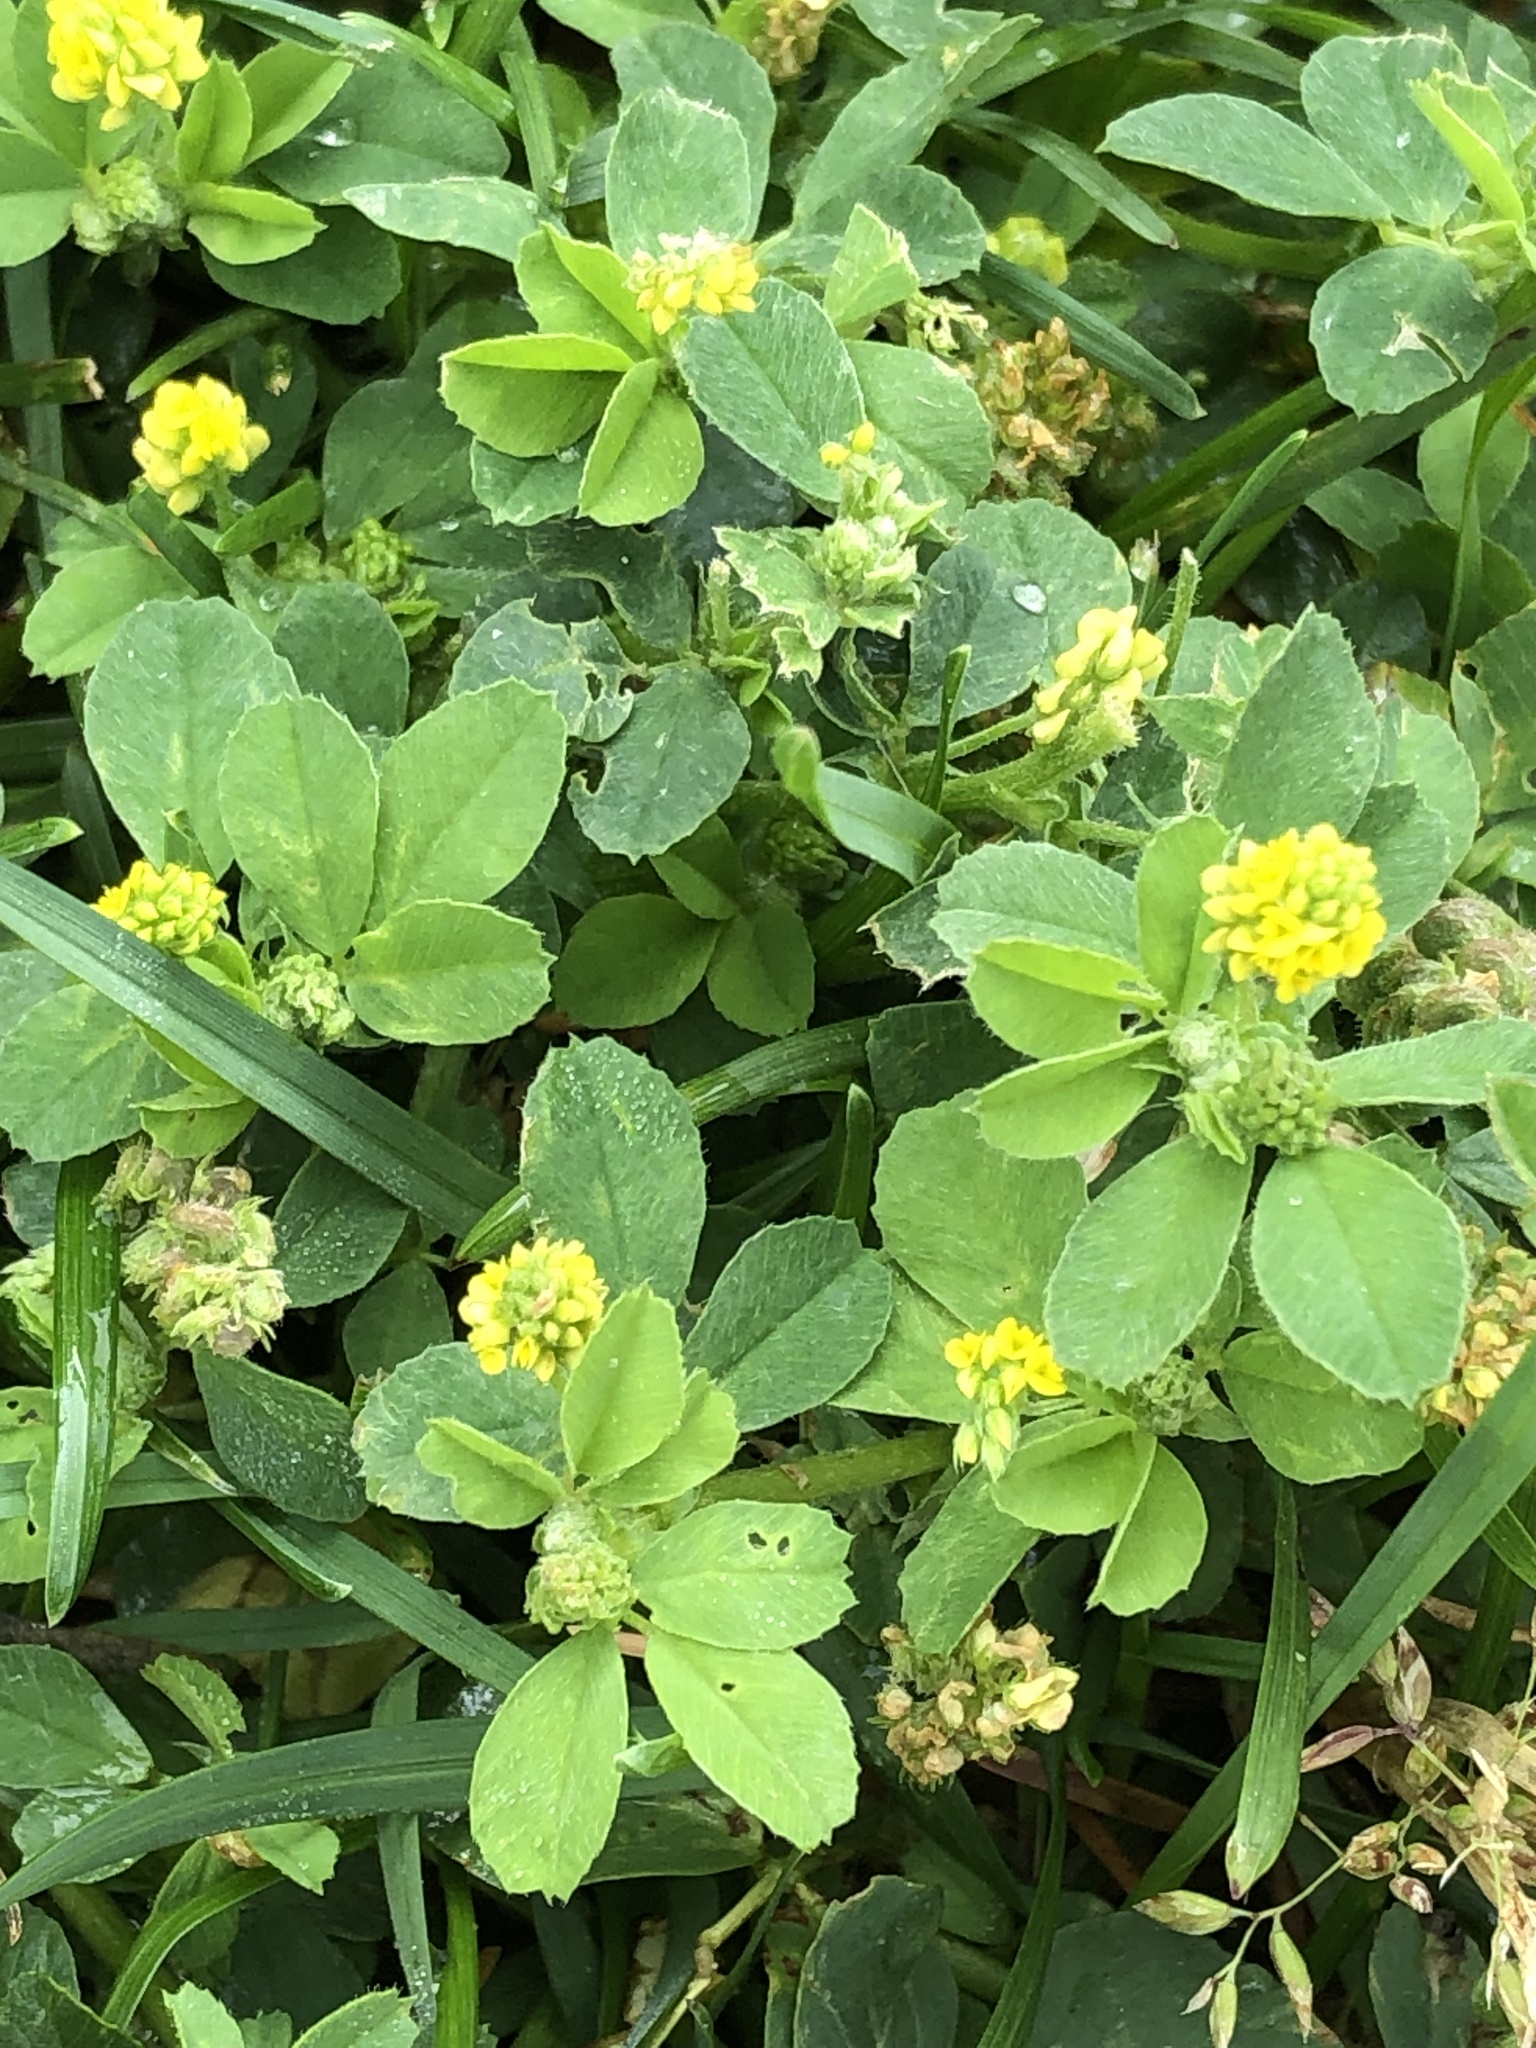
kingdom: Plantae
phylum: Tracheophyta
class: Magnoliopsida
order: Fabales
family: Fabaceae
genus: Medicago
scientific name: Medicago lupulina
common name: Black medick
